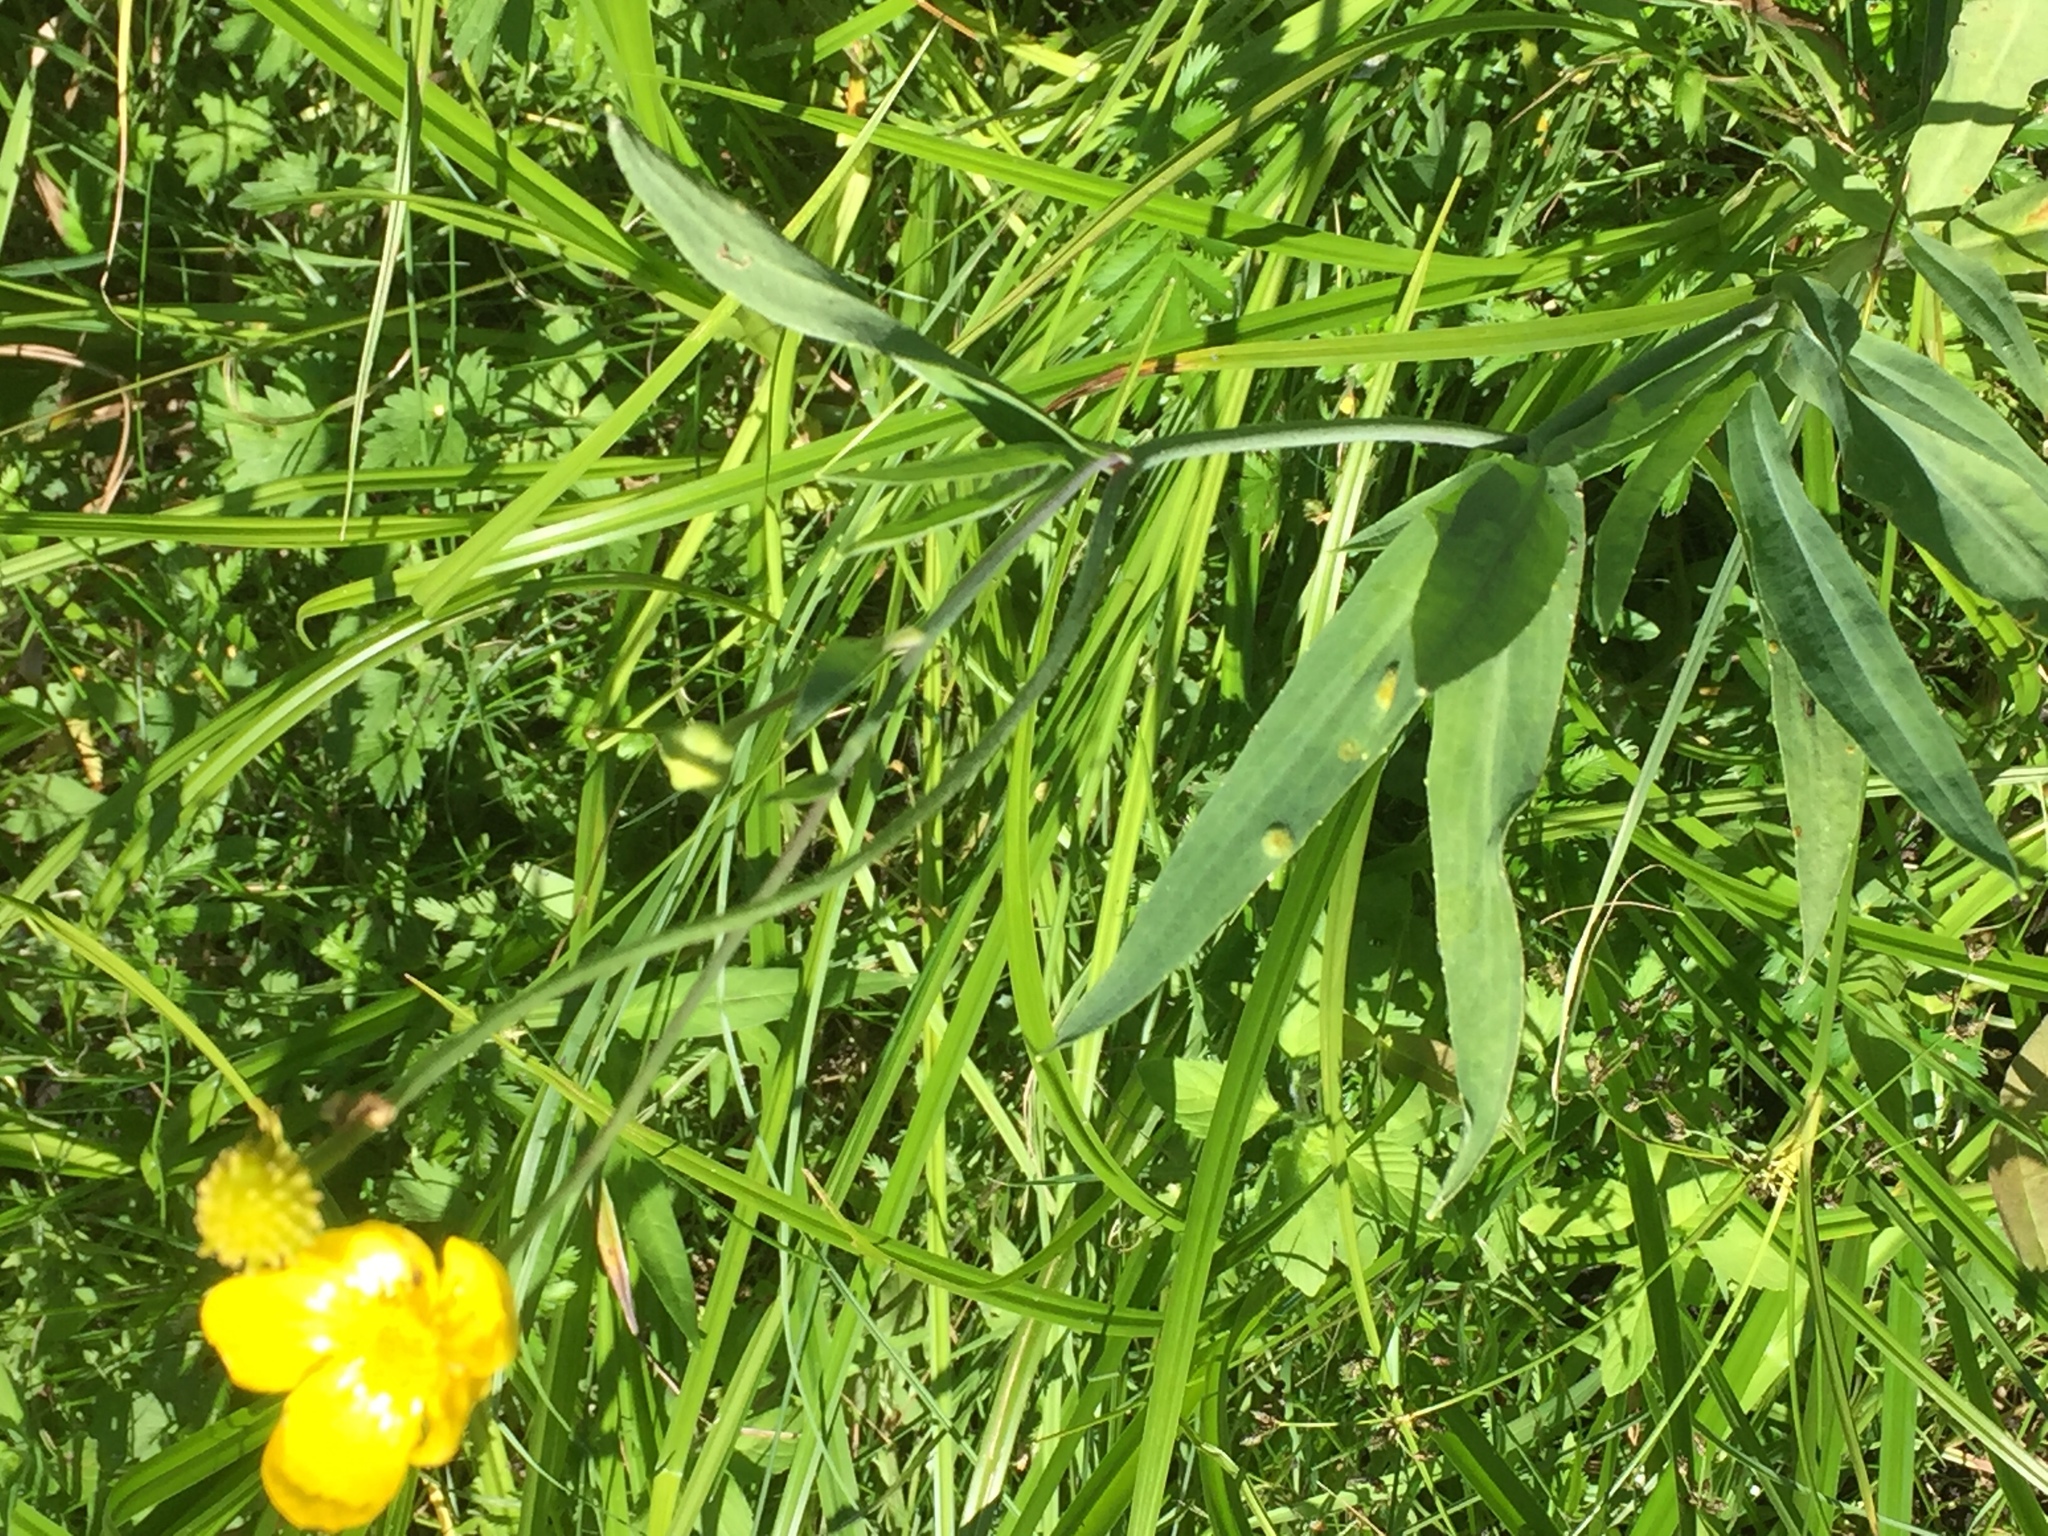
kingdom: Plantae
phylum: Tracheophyta
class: Magnoliopsida
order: Ranunculales
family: Ranunculaceae
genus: Ranunculus
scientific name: Ranunculus lingua
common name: Greater spearwort
